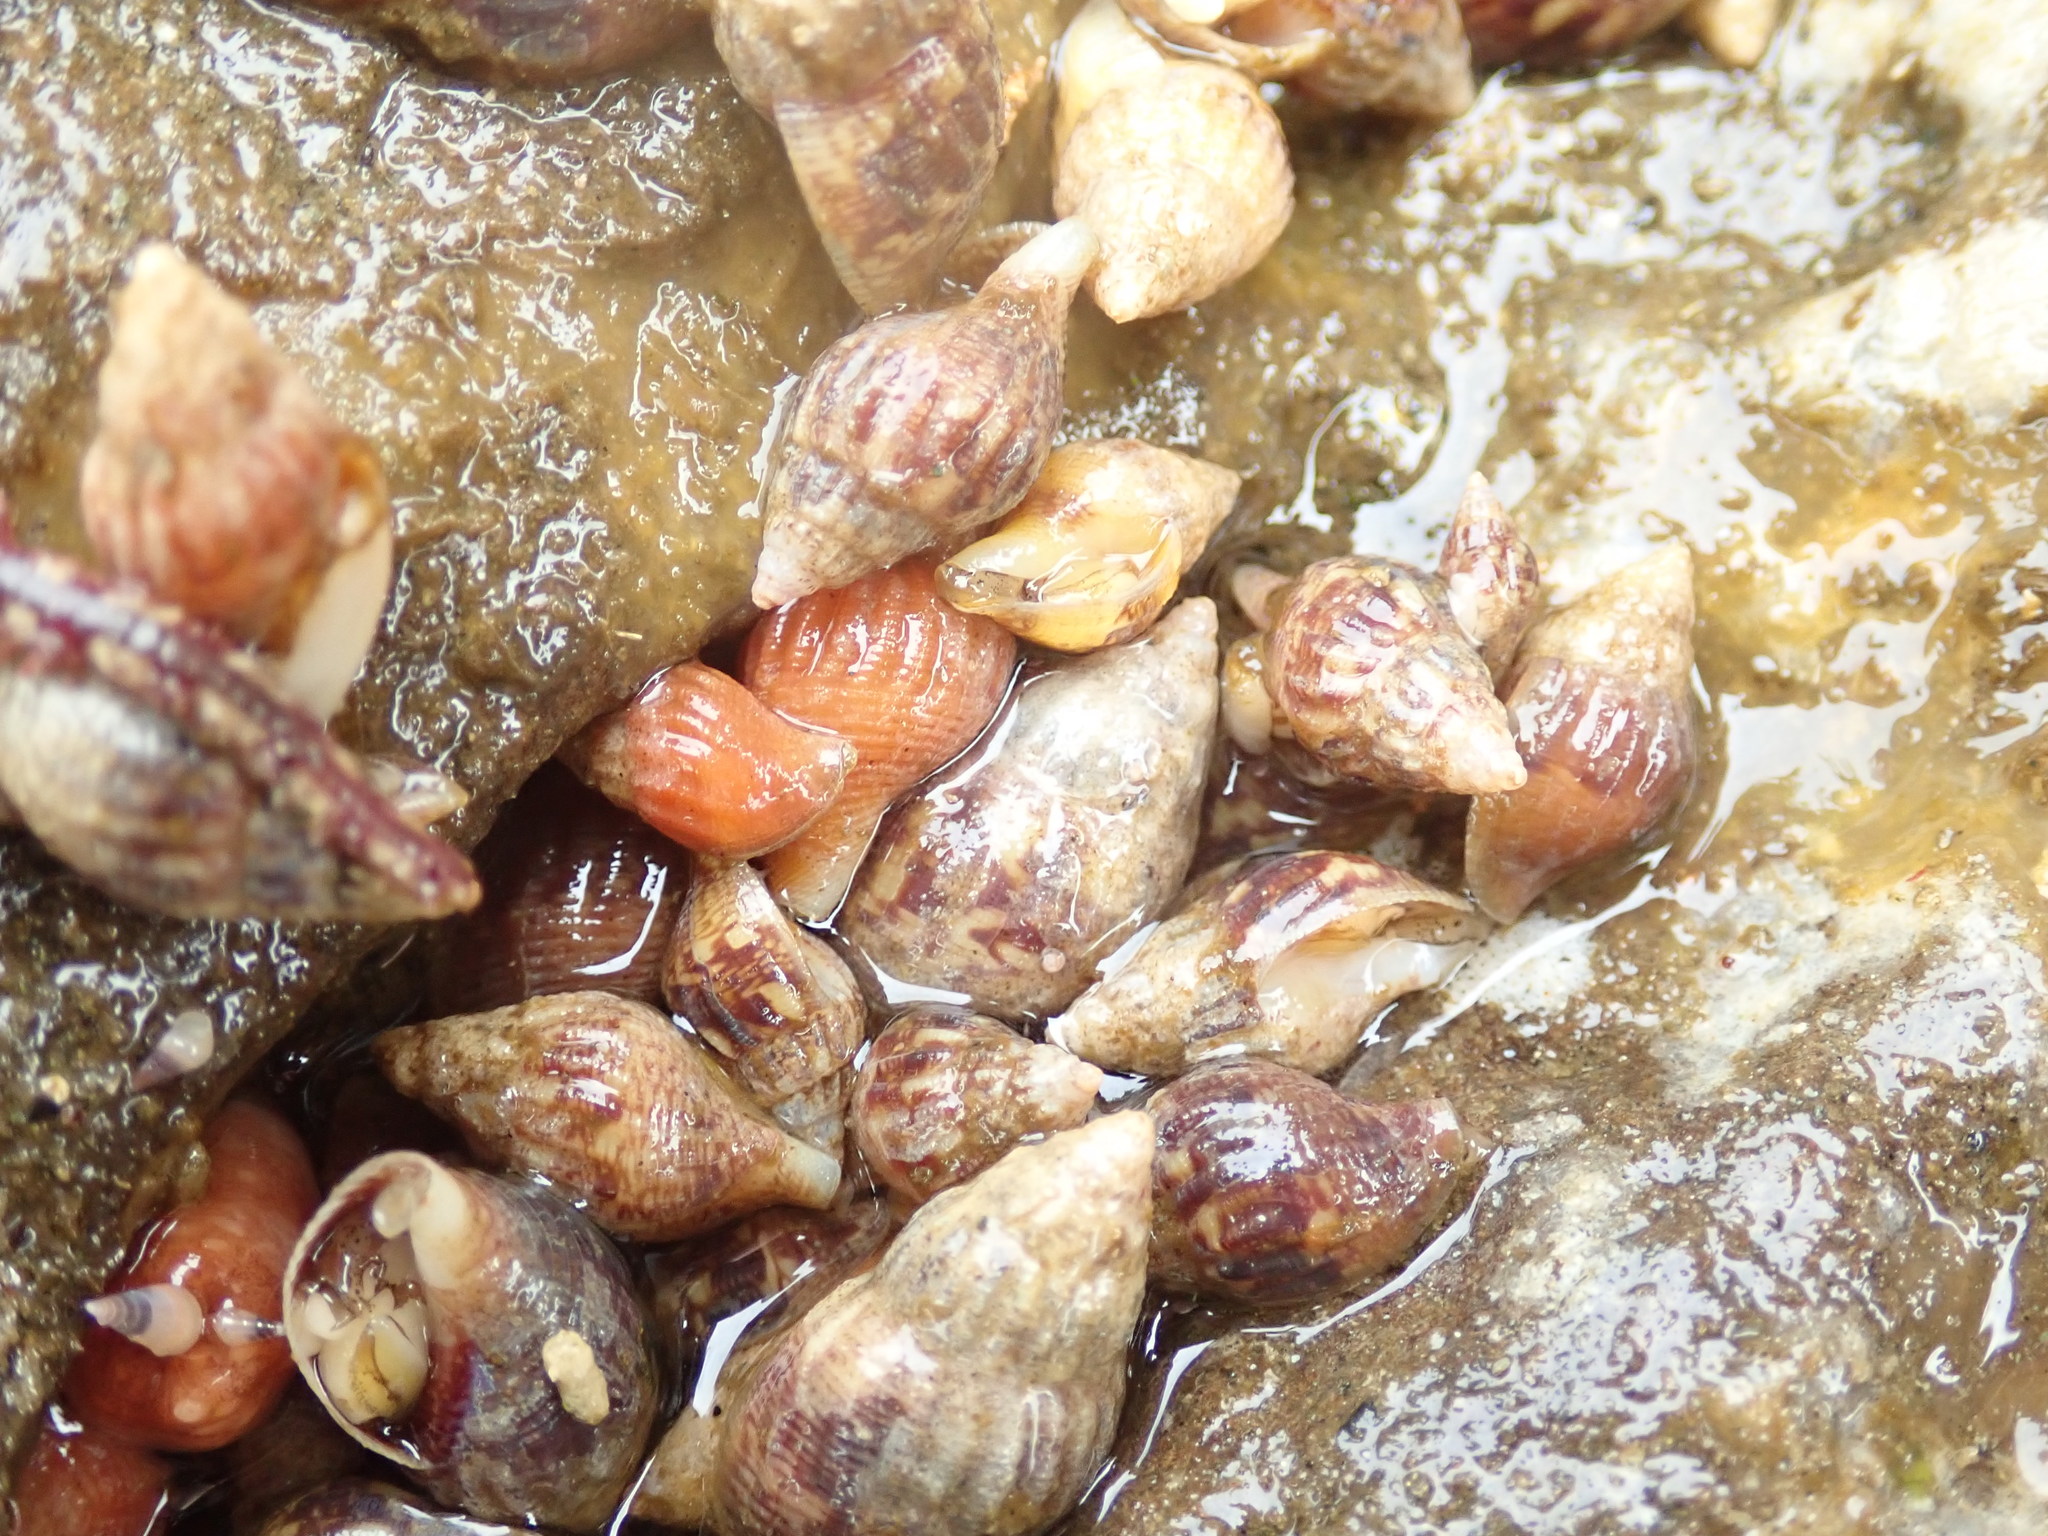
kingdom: Animalia
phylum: Mollusca
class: Gastropoda
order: Neogastropoda
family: Columbellidae
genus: Amphissa
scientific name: Amphissa columbiana
